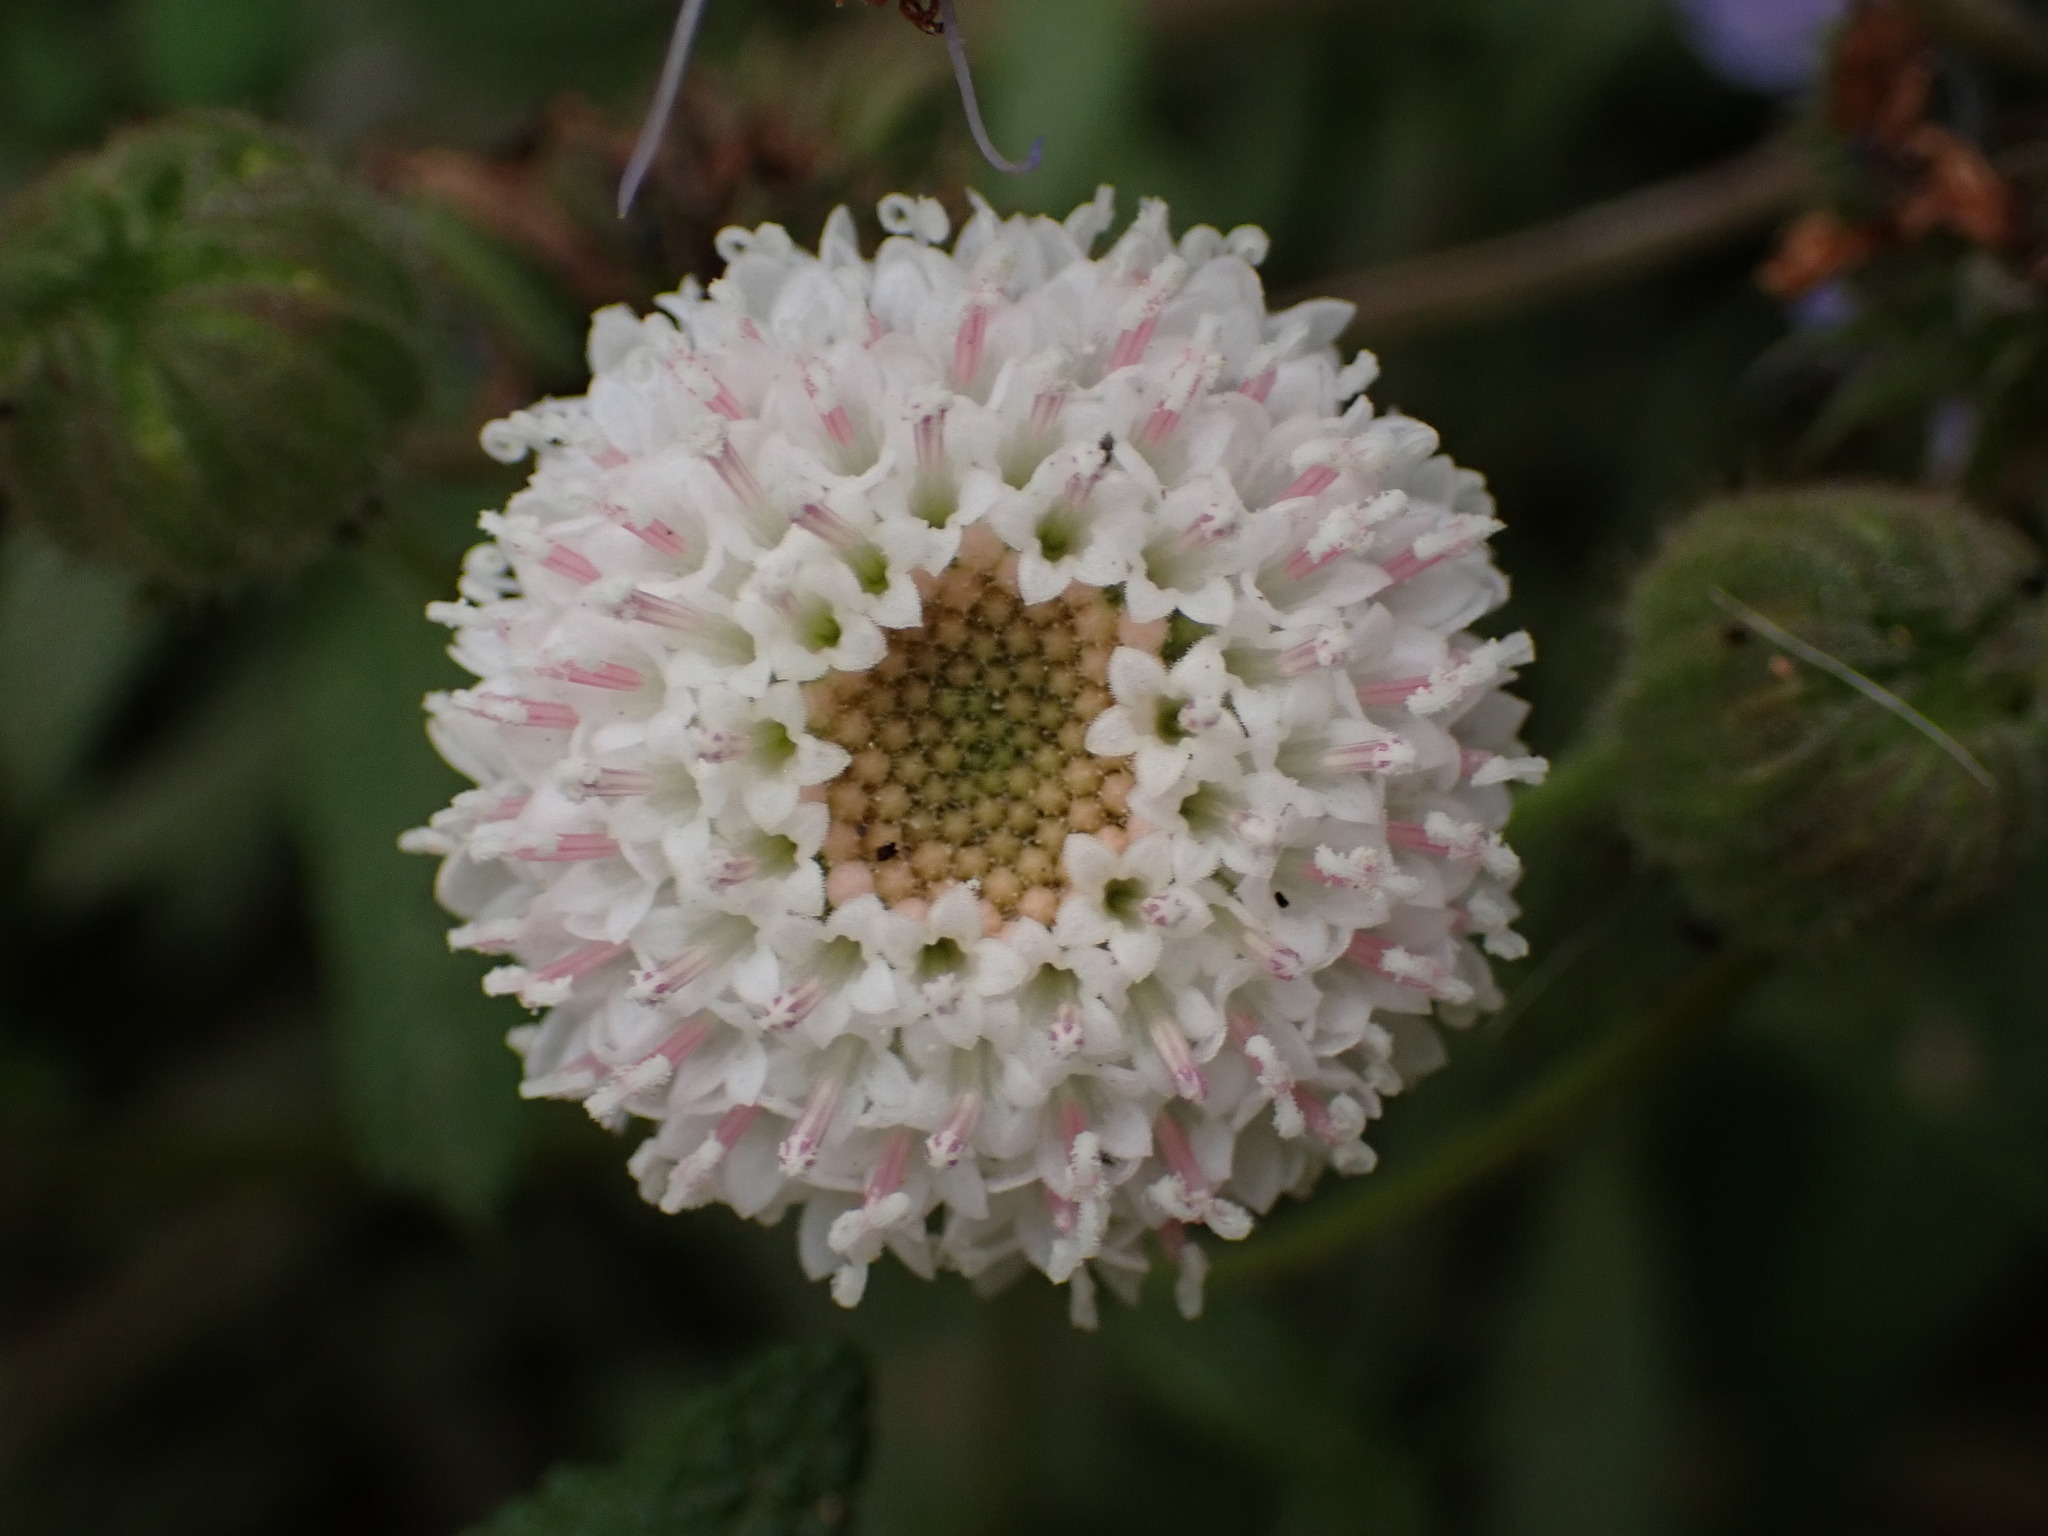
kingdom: Plantae
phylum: Tracheophyta
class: Magnoliopsida
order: Asterales
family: Asteraceae
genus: Chaenactis
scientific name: Chaenactis artemisiifolia
